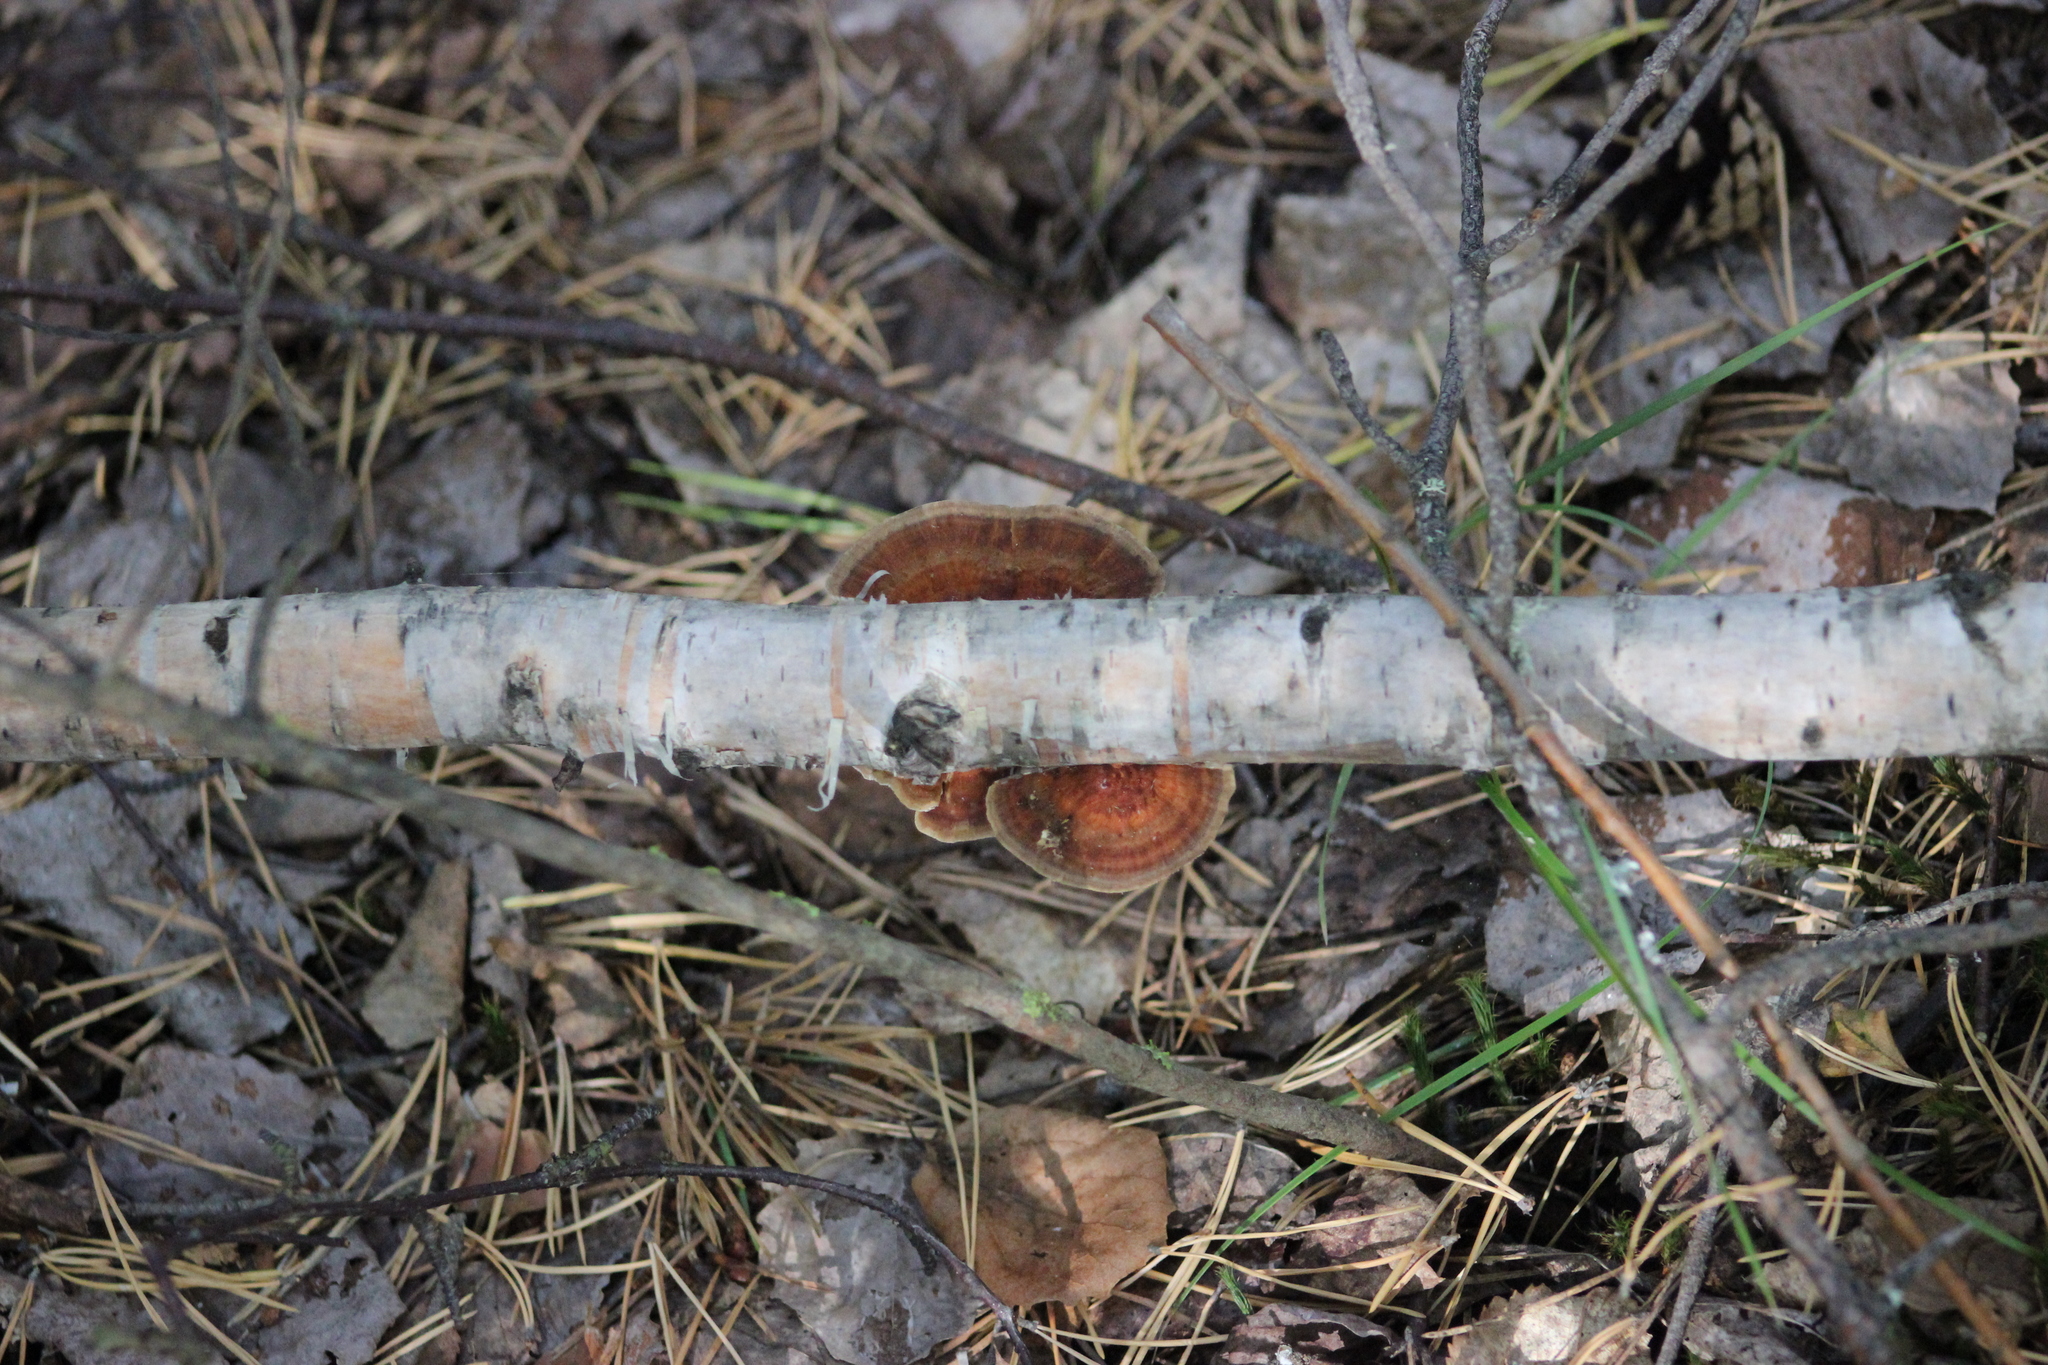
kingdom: Fungi
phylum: Basidiomycota
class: Agaricomycetes
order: Polyporales
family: Polyporaceae
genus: Daedaleopsis
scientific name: Daedaleopsis tricolor
